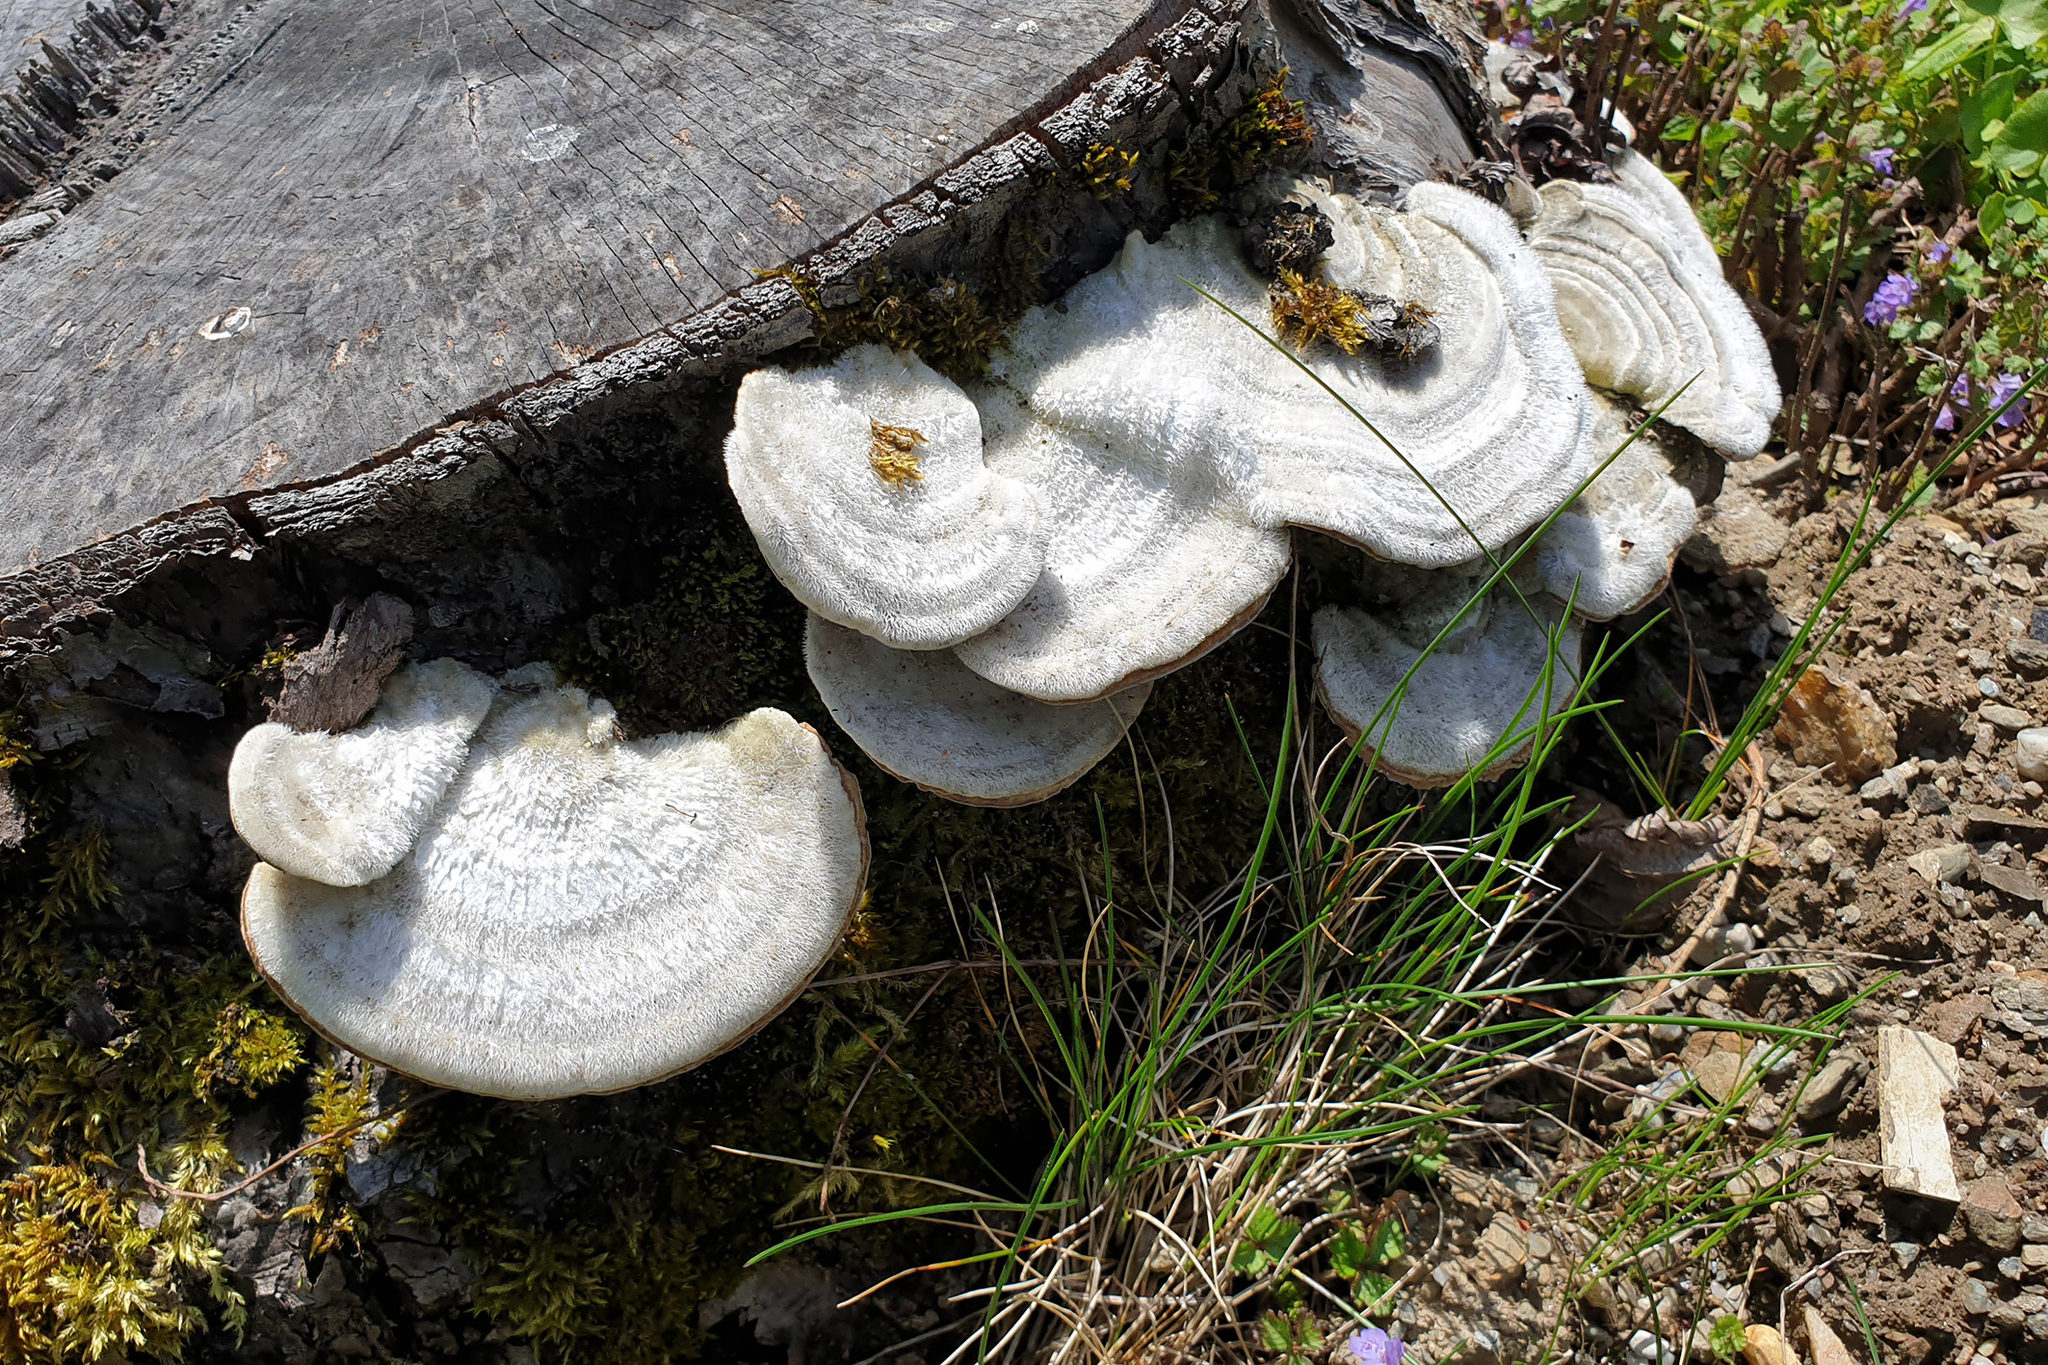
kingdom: Fungi
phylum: Basidiomycota
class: Agaricomycetes
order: Polyporales
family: Polyporaceae
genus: Trametes
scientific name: Trametes pubescens
